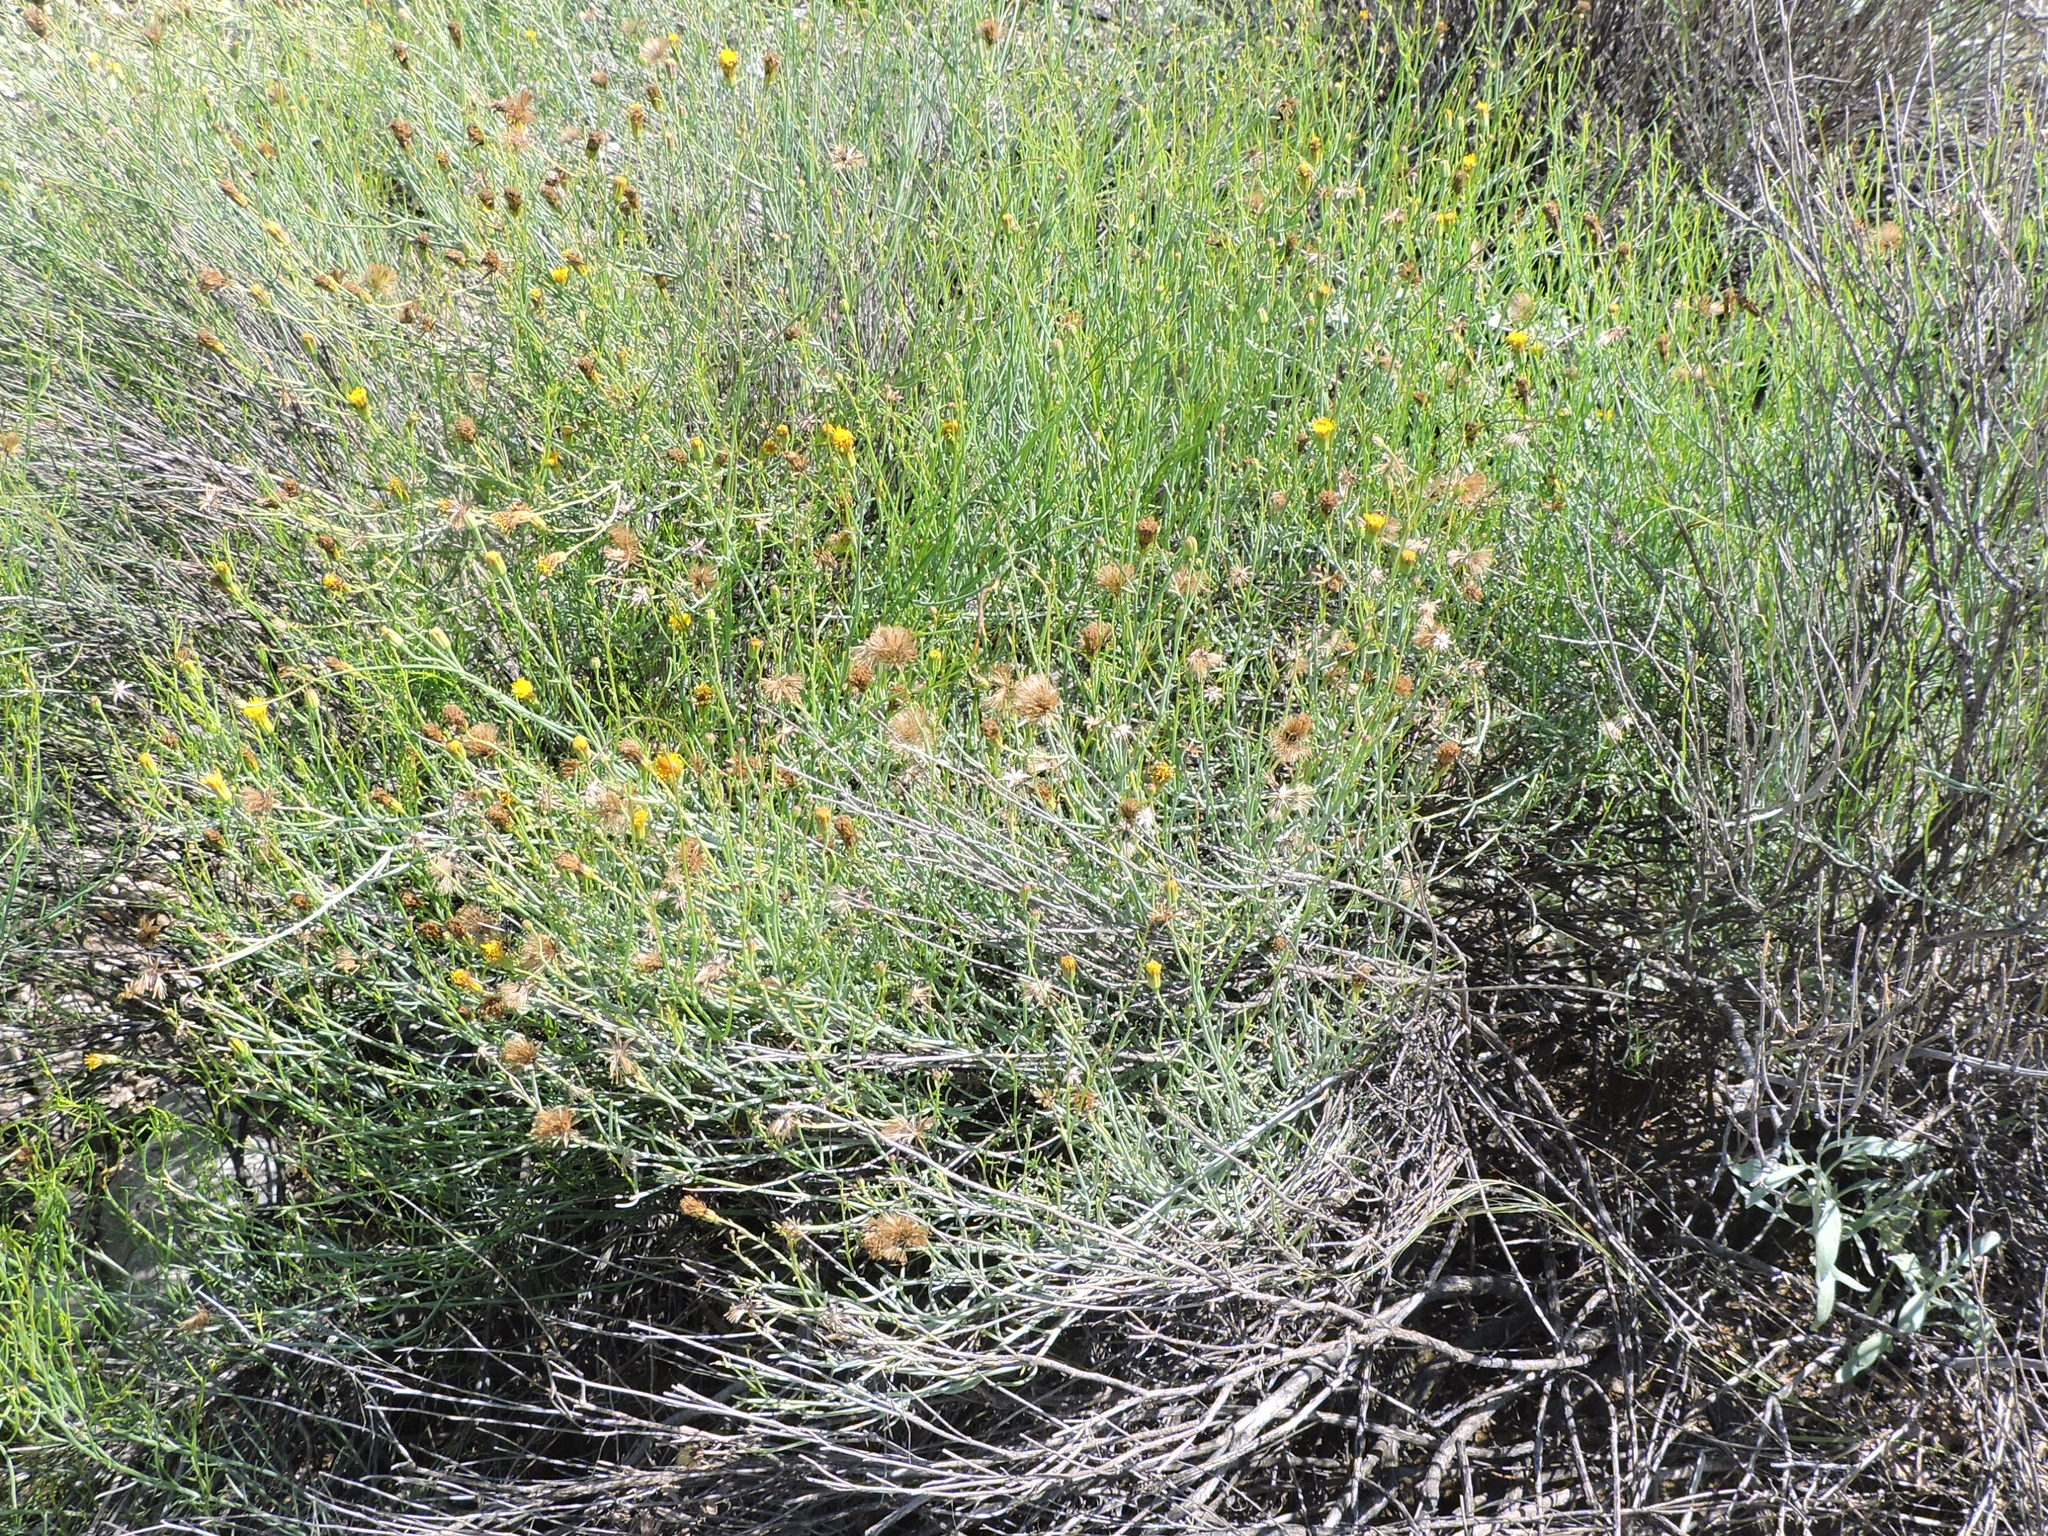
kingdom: Plantae
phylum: Tracheophyta
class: Magnoliopsida
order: Asterales
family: Asteraceae
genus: Porophyllum
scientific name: Porophyllum scoparium
